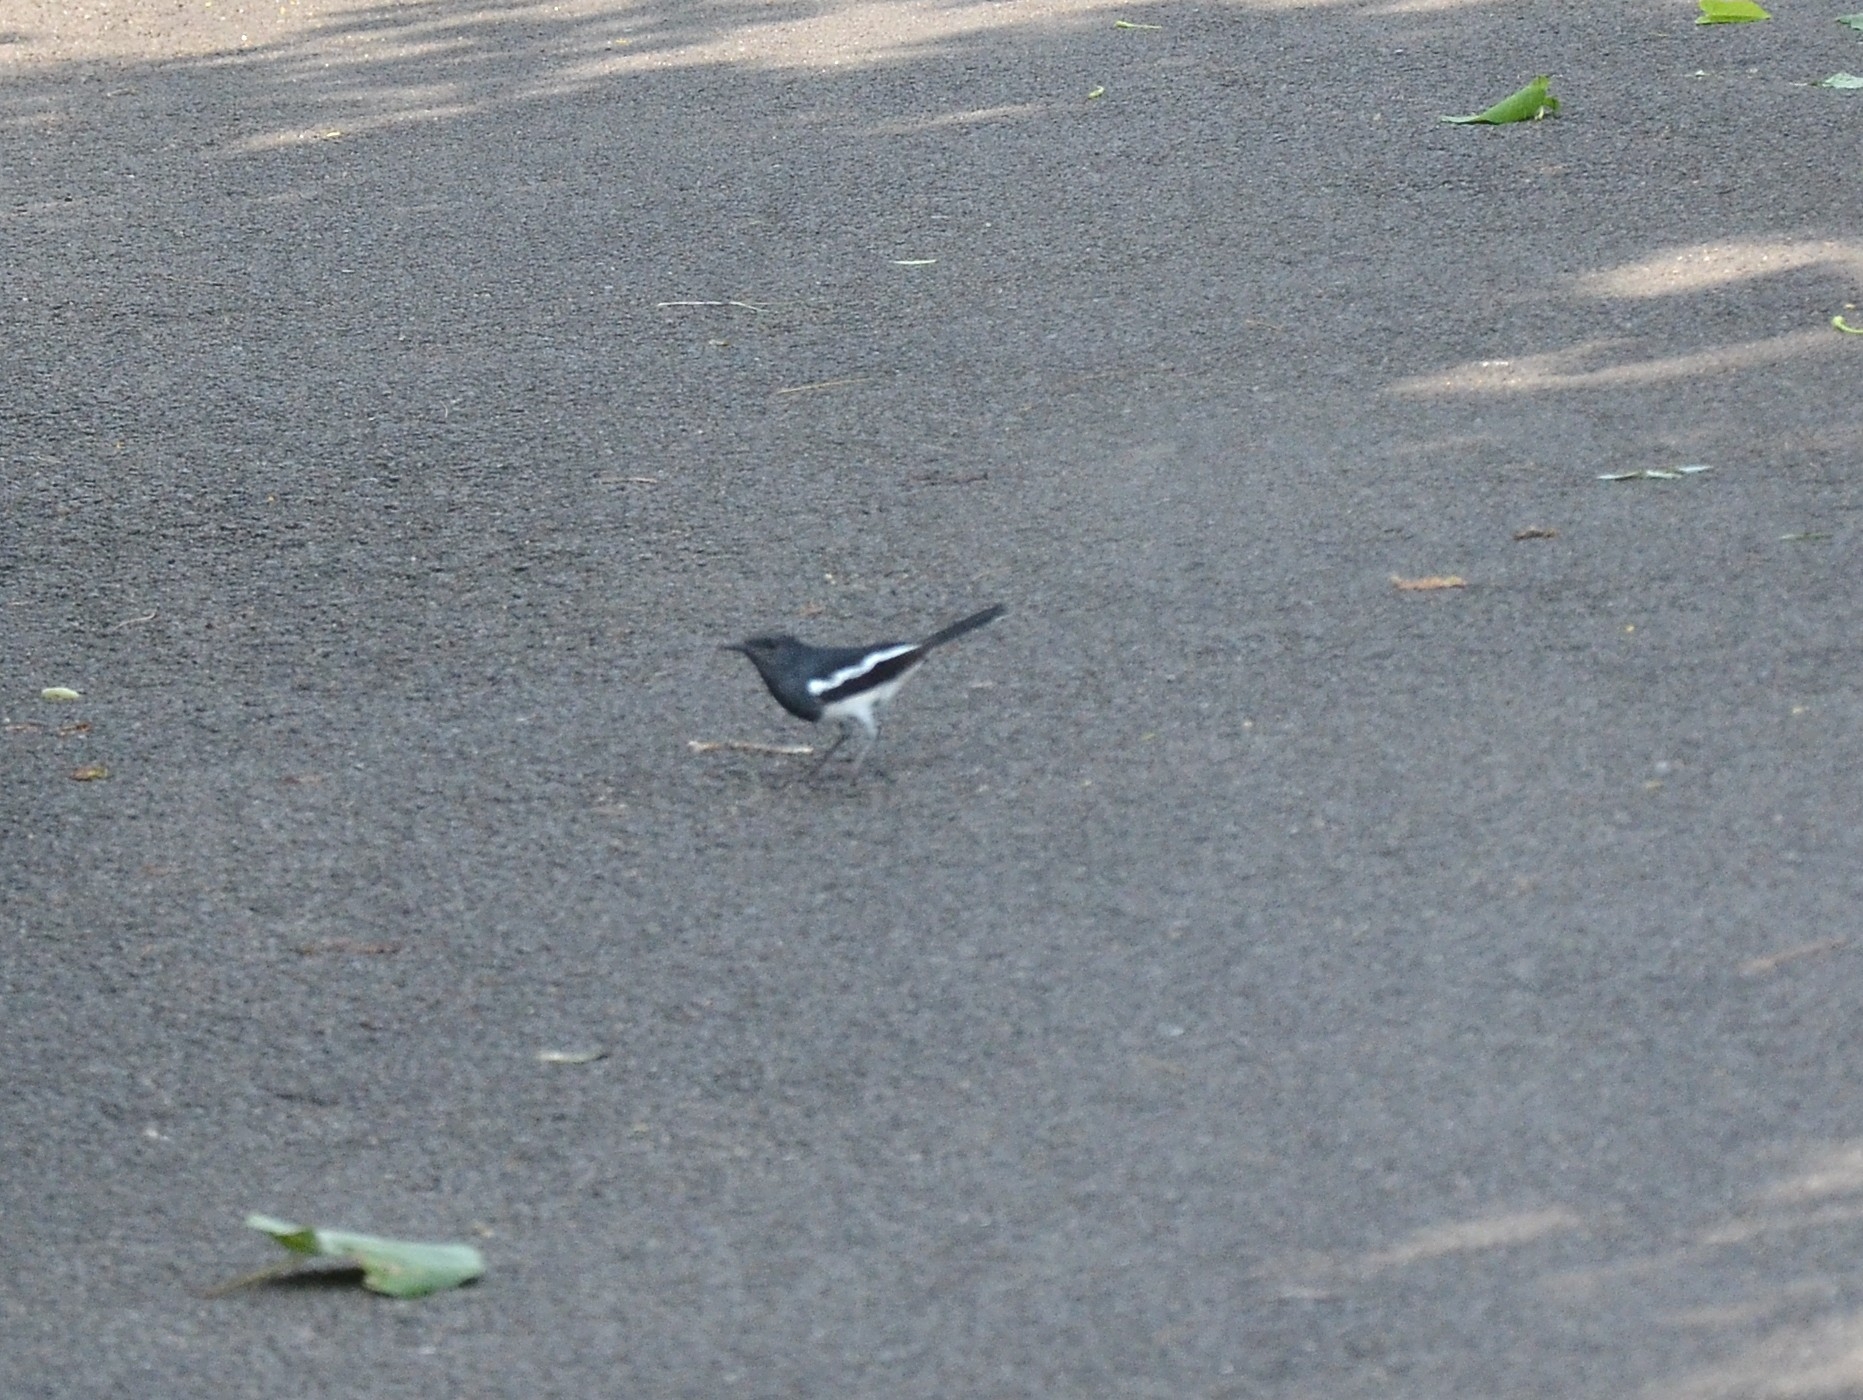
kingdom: Animalia
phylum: Chordata
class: Aves
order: Passeriformes
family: Muscicapidae
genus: Copsychus
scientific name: Copsychus saularis
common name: Oriental magpie-robin
